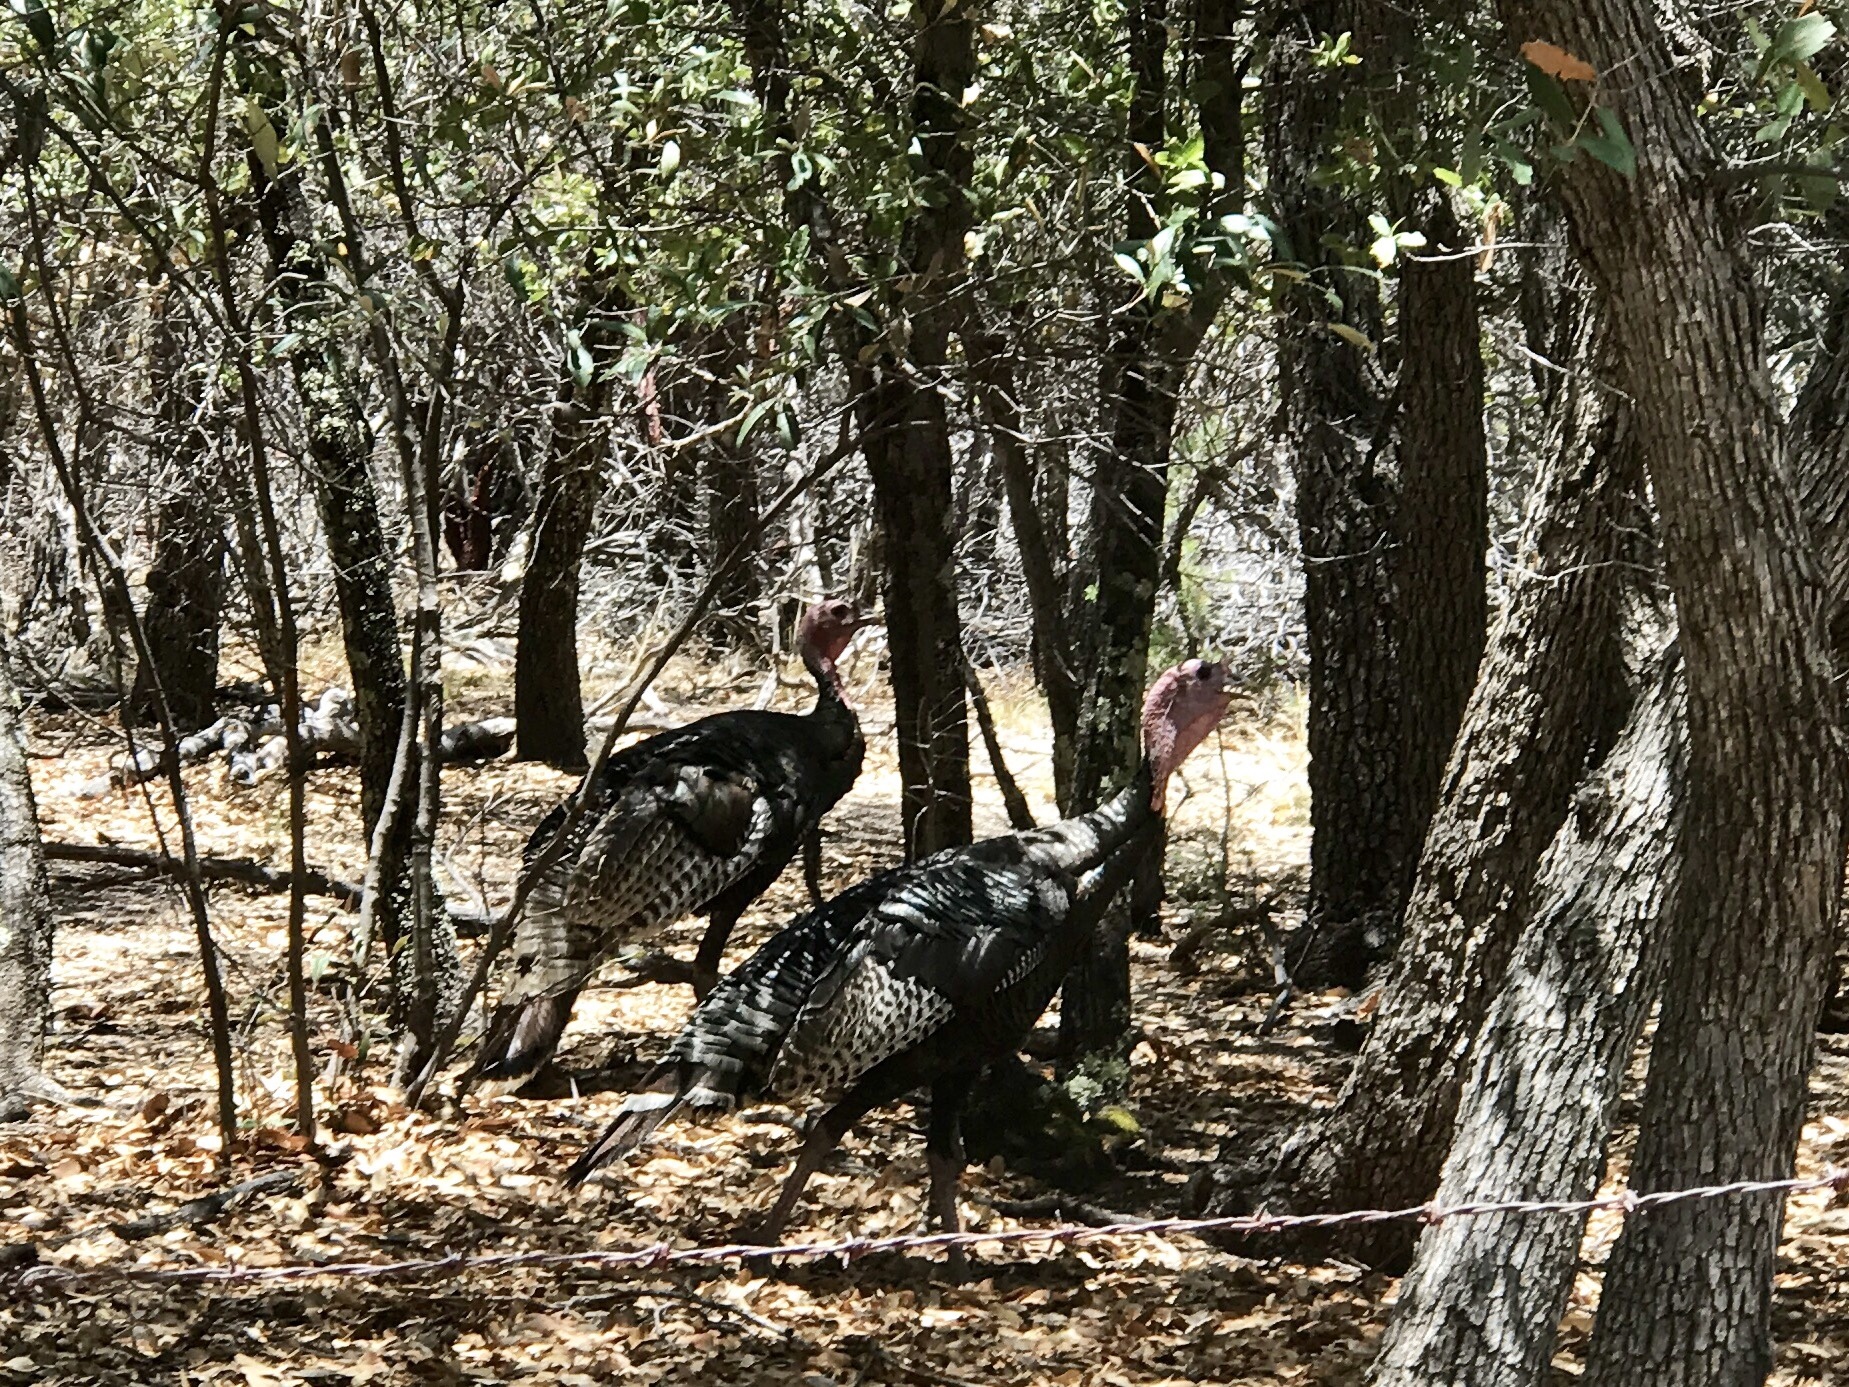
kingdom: Animalia
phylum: Chordata
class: Aves
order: Galliformes
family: Phasianidae
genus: Meleagris
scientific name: Meleagris gallopavo
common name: Wild turkey
